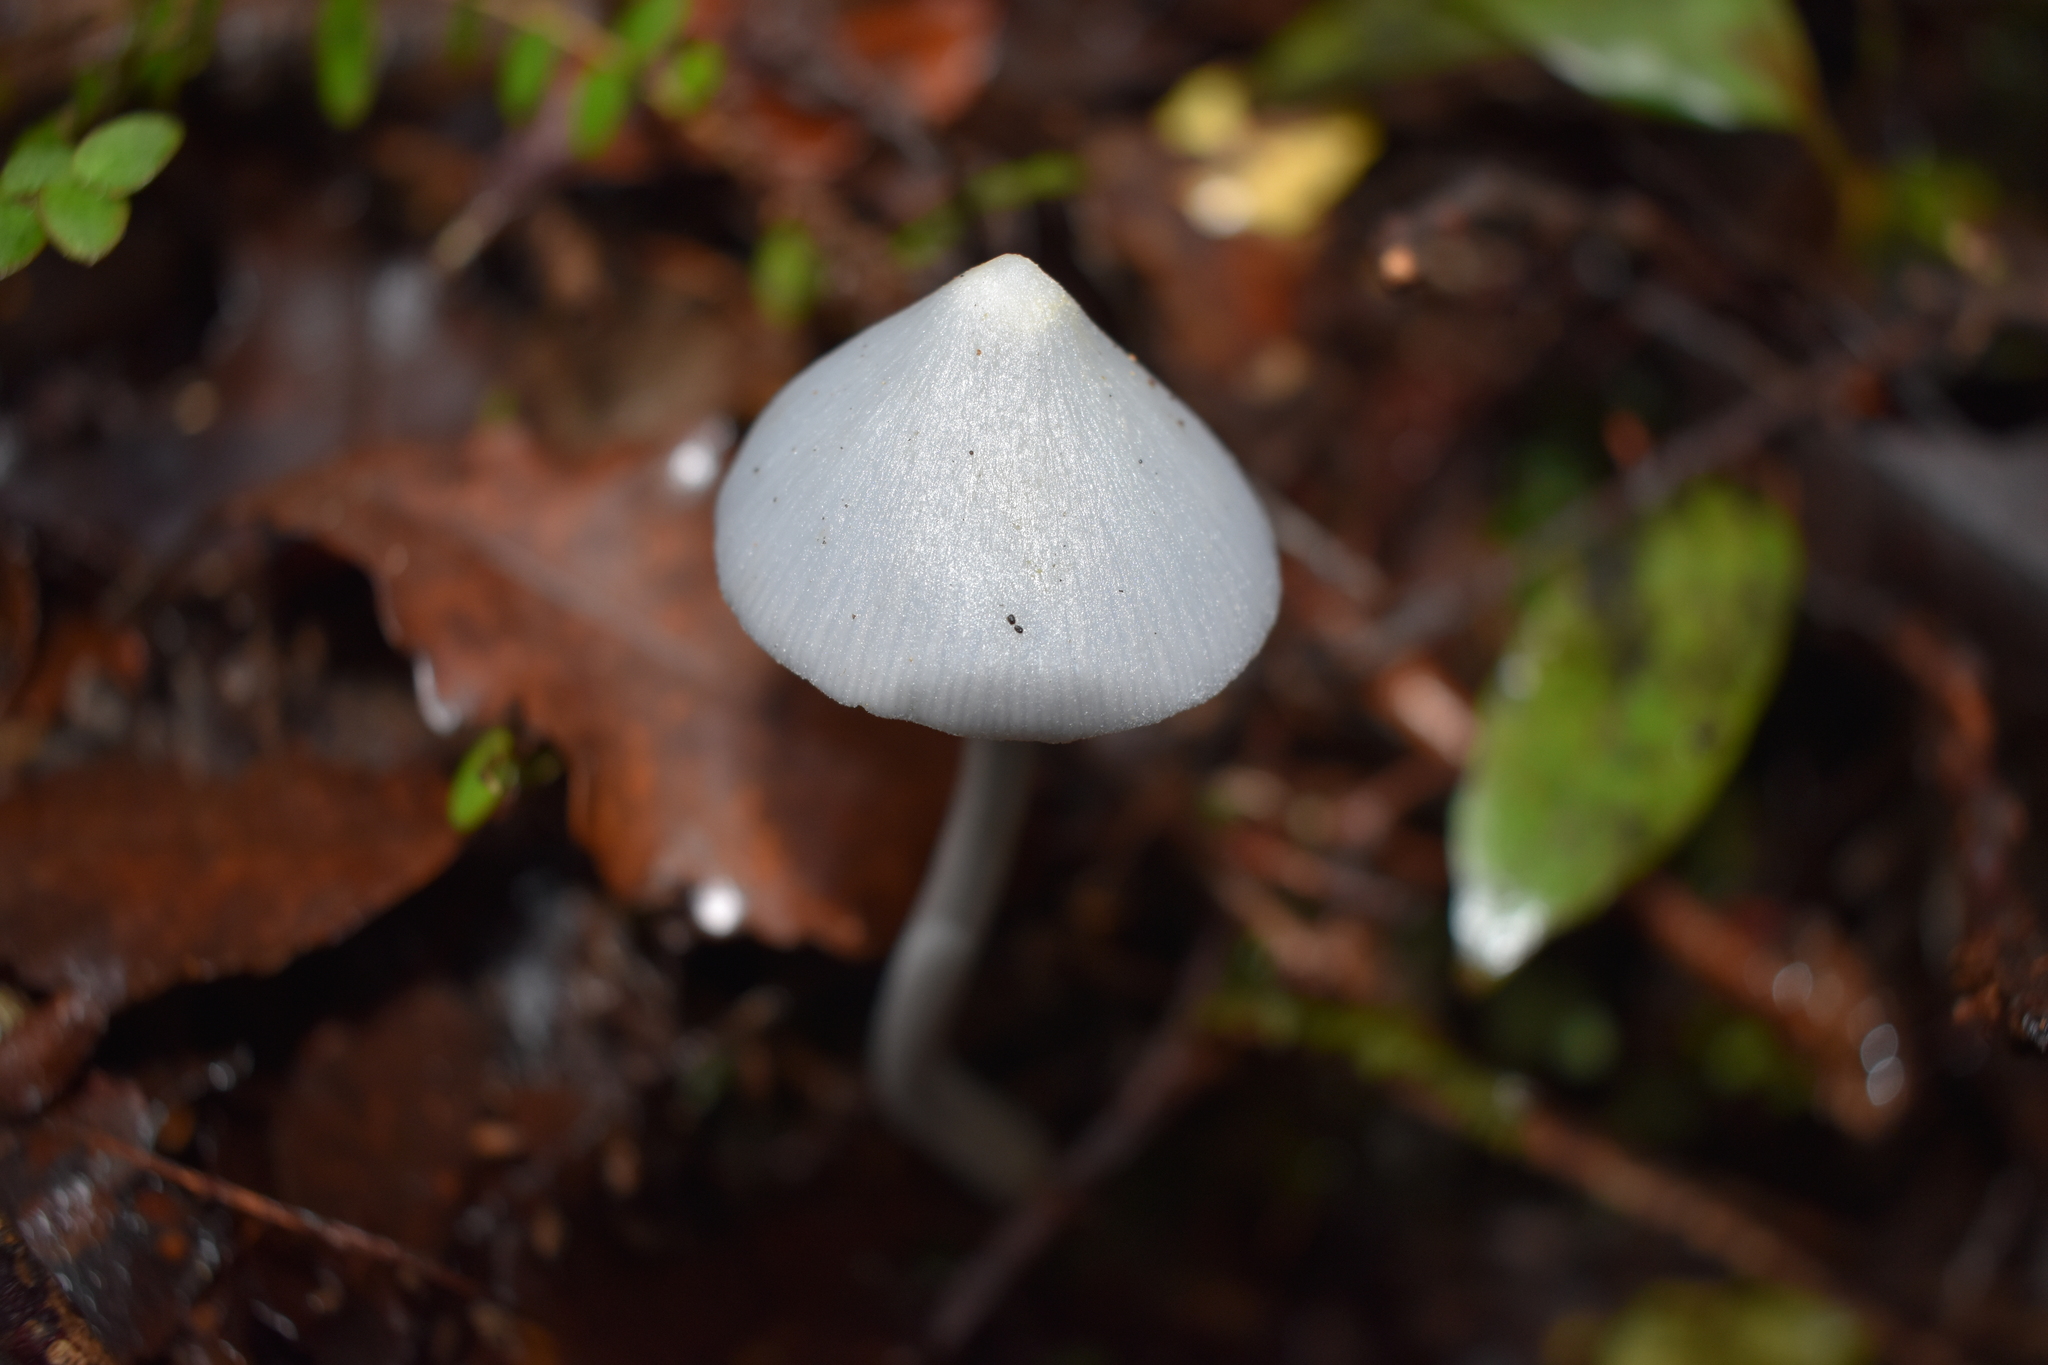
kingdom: Fungi
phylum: Basidiomycota
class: Agaricomycetes
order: Agaricales
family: Entolomataceae
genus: Entoloma
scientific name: Entoloma canoconicum
